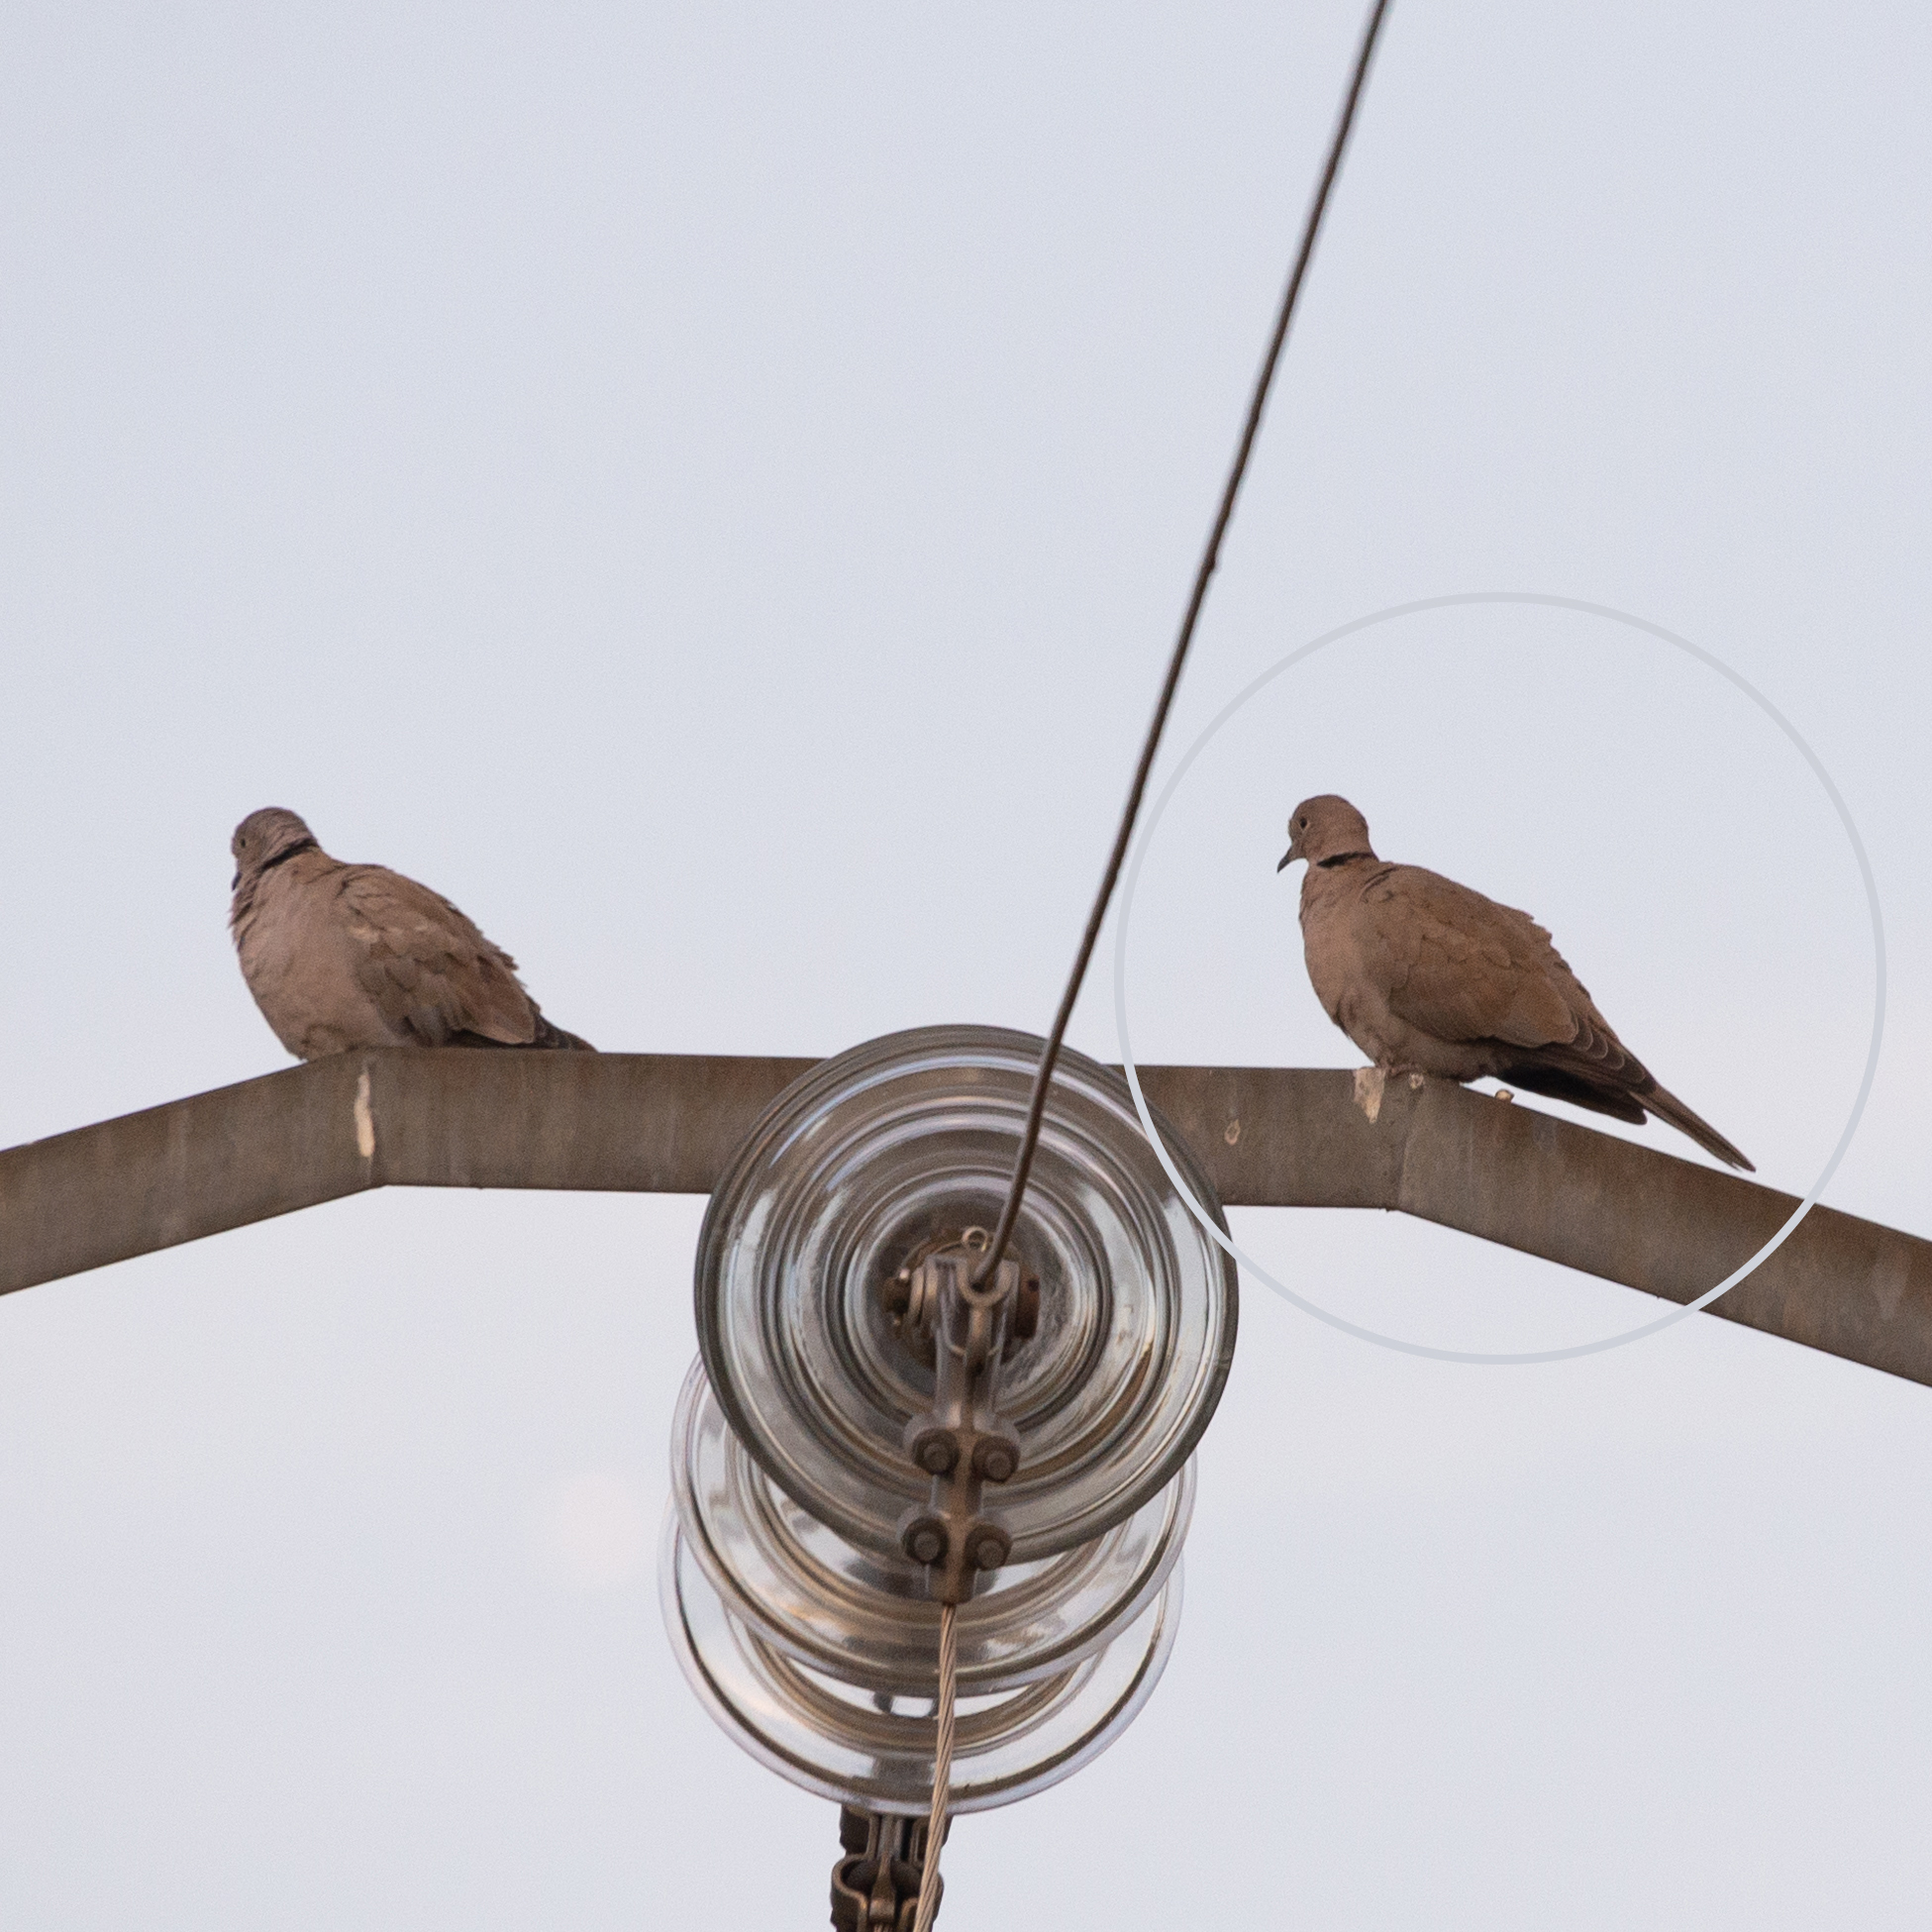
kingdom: Animalia
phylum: Chordata
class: Aves
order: Columbiformes
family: Columbidae
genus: Streptopelia
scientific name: Streptopelia decaocto
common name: Eurasian collared dove
